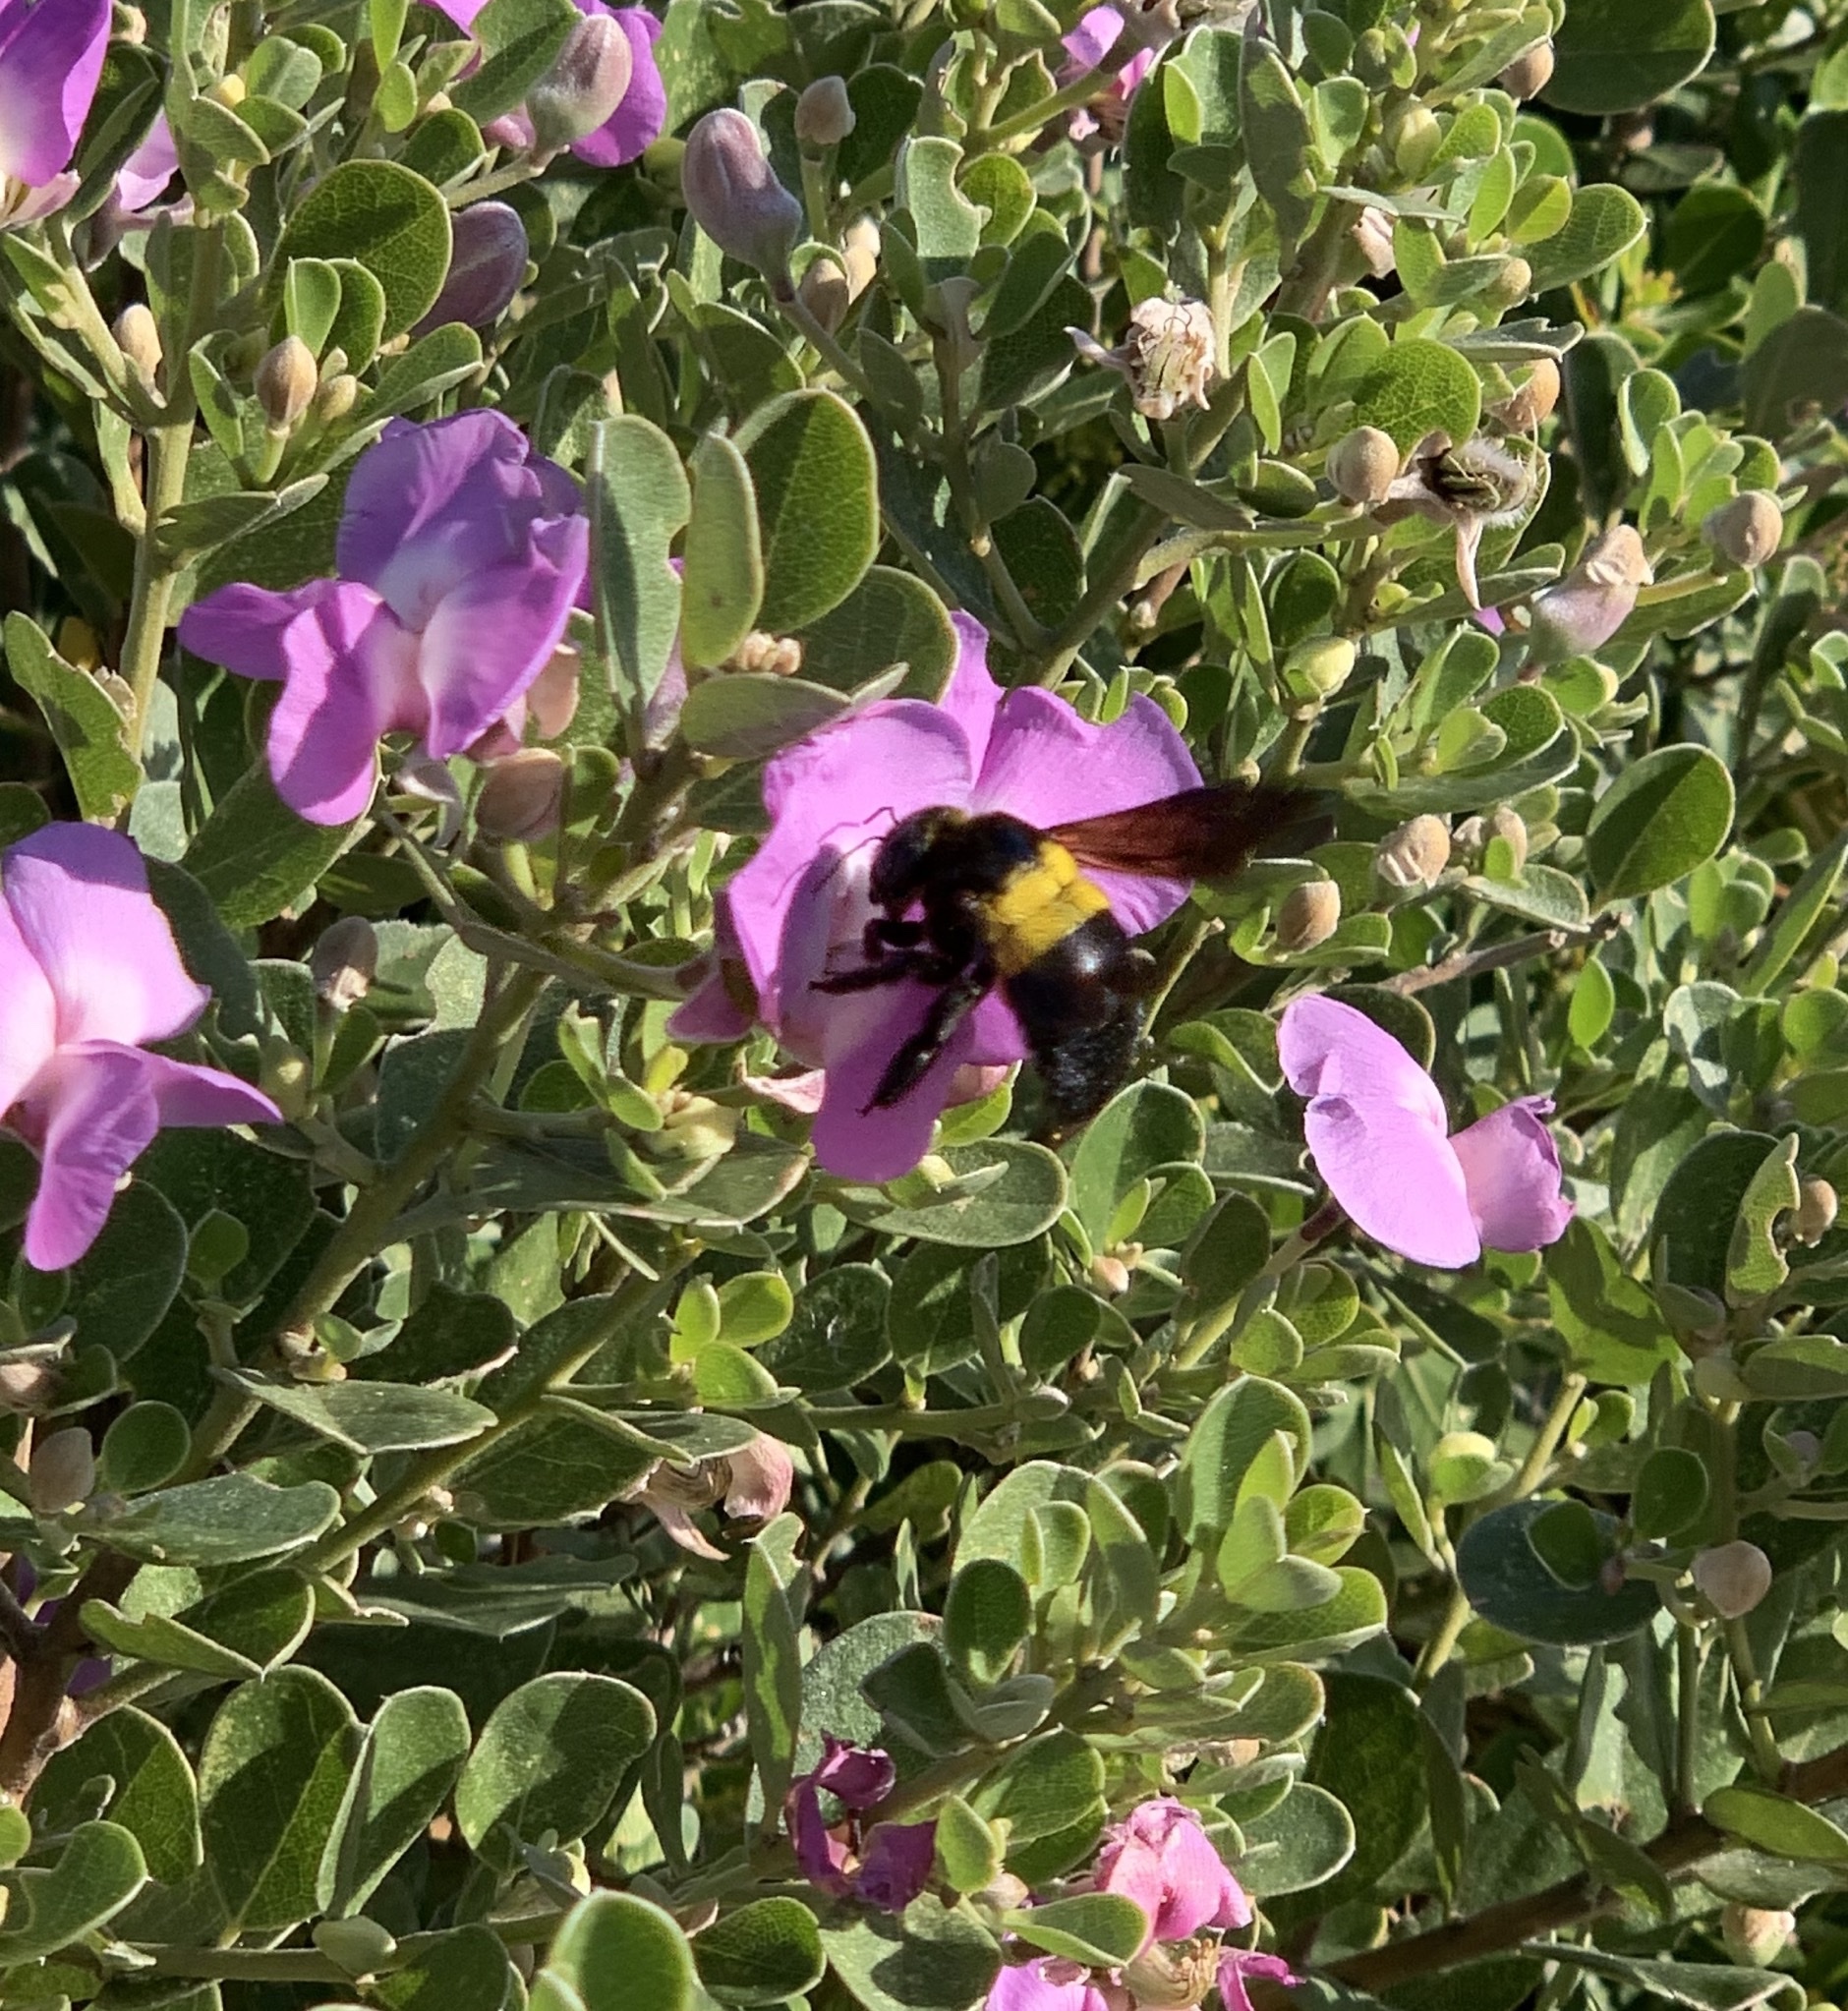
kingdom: Animalia
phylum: Arthropoda
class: Insecta
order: Hymenoptera
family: Apidae
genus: Xylocopa
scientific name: Xylocopa caffra
